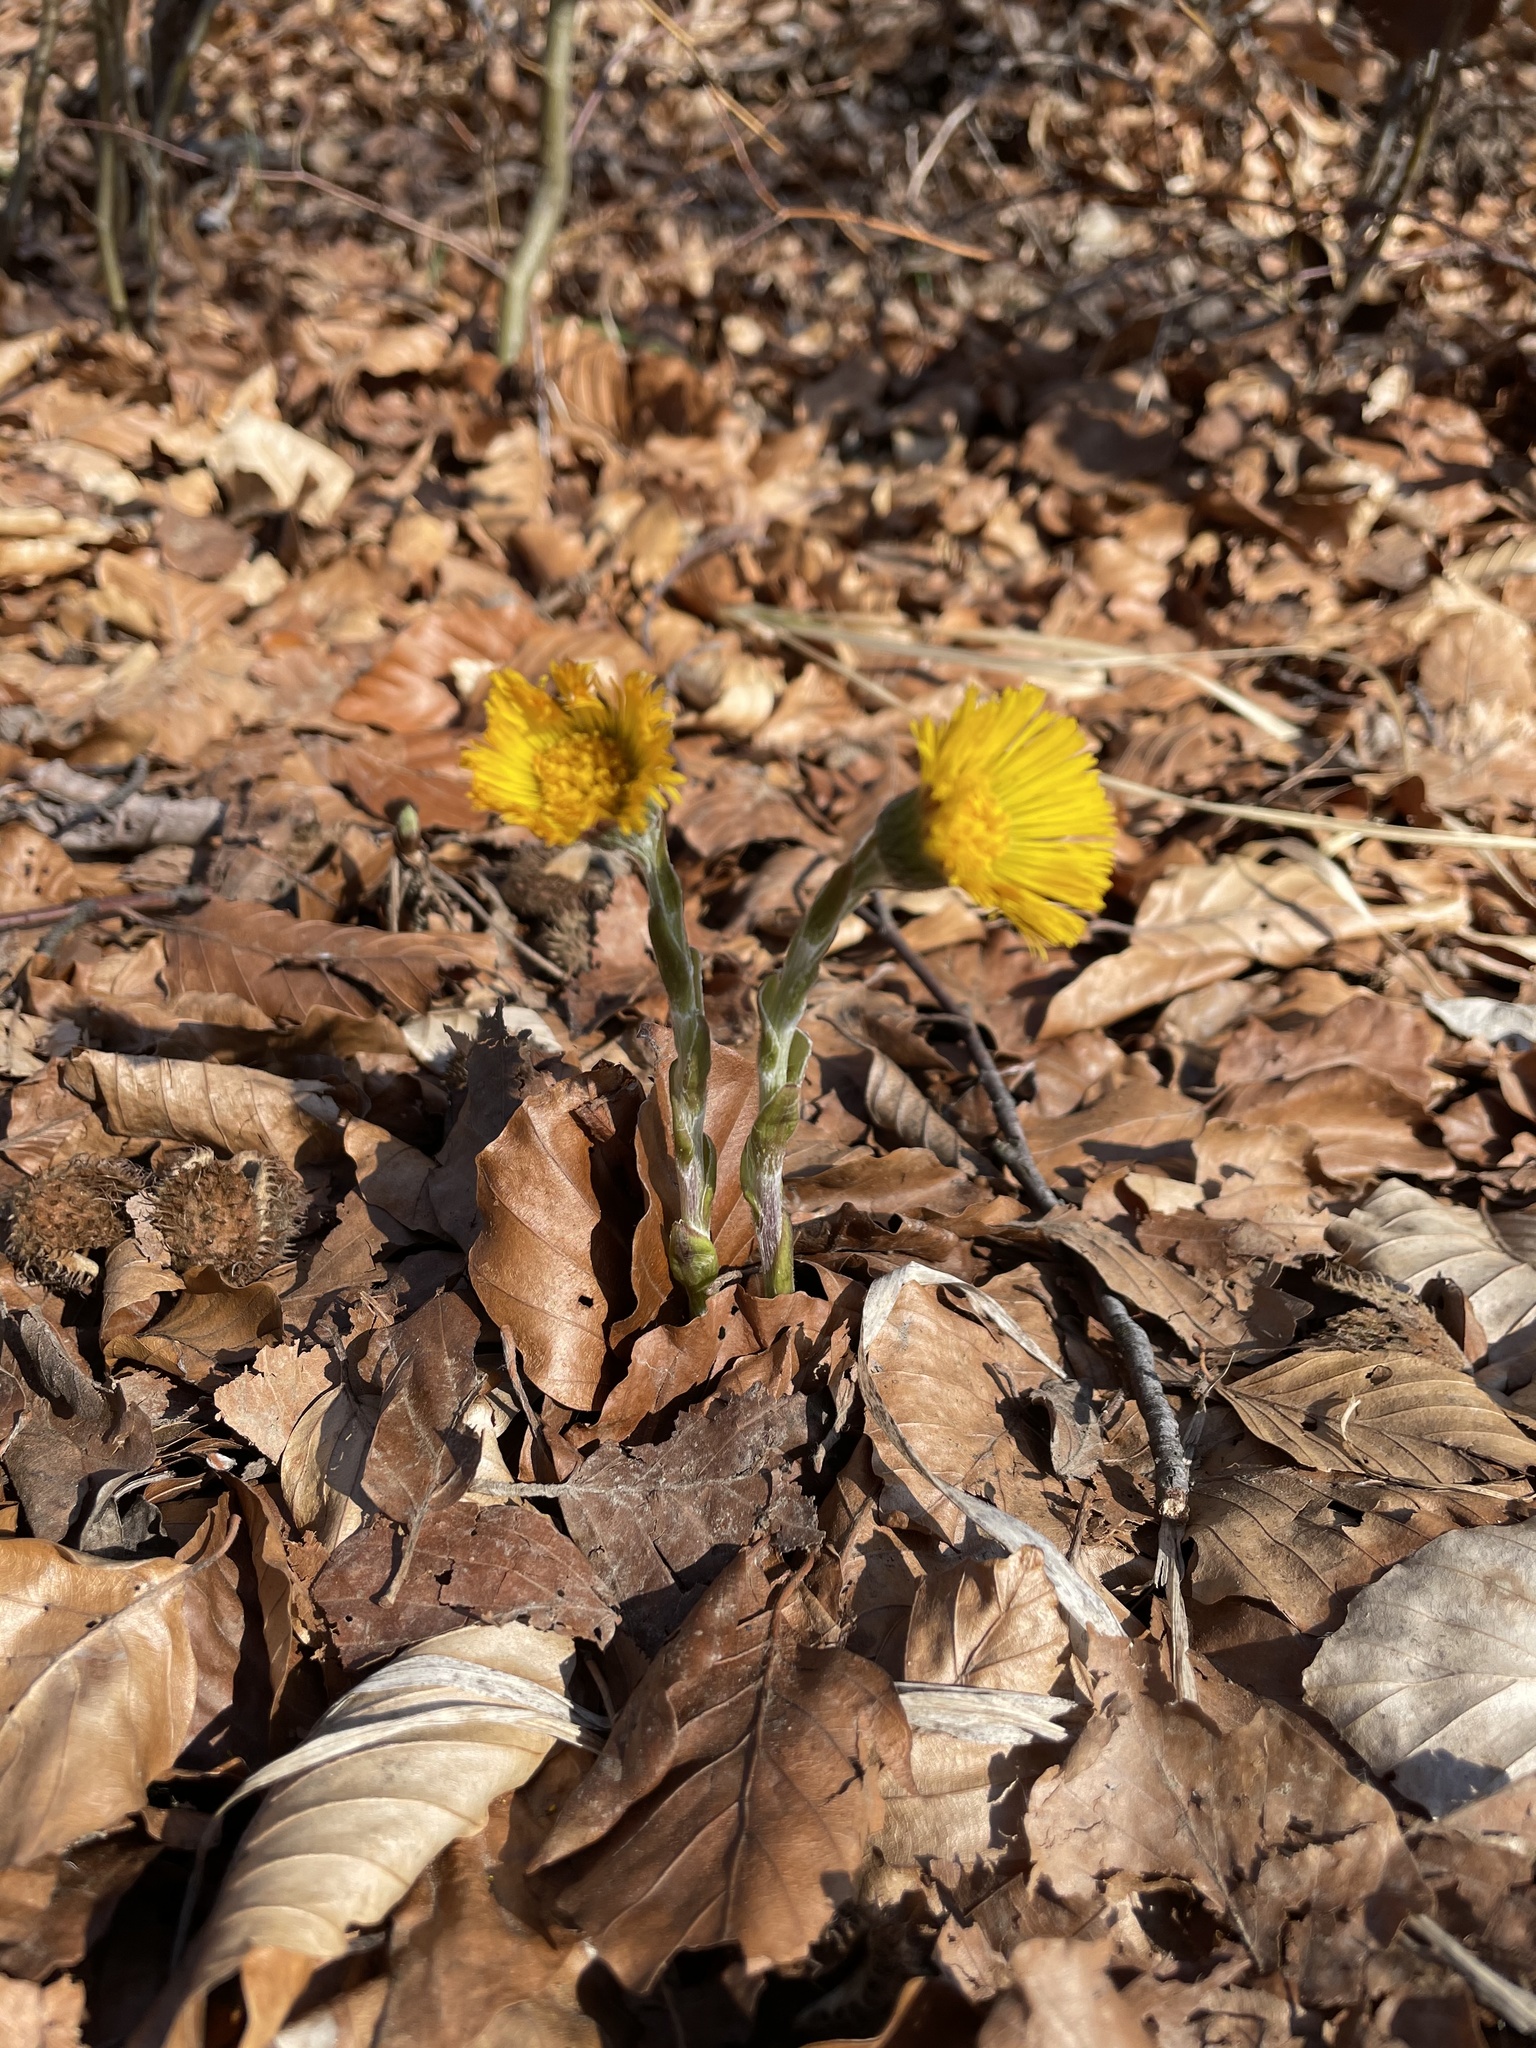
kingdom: Plantae
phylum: Tracheophyta
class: Magnoliopsida
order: Asterales
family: Asteraceae
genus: Tussilago
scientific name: Tussilago farfara
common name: Coltsfoot
